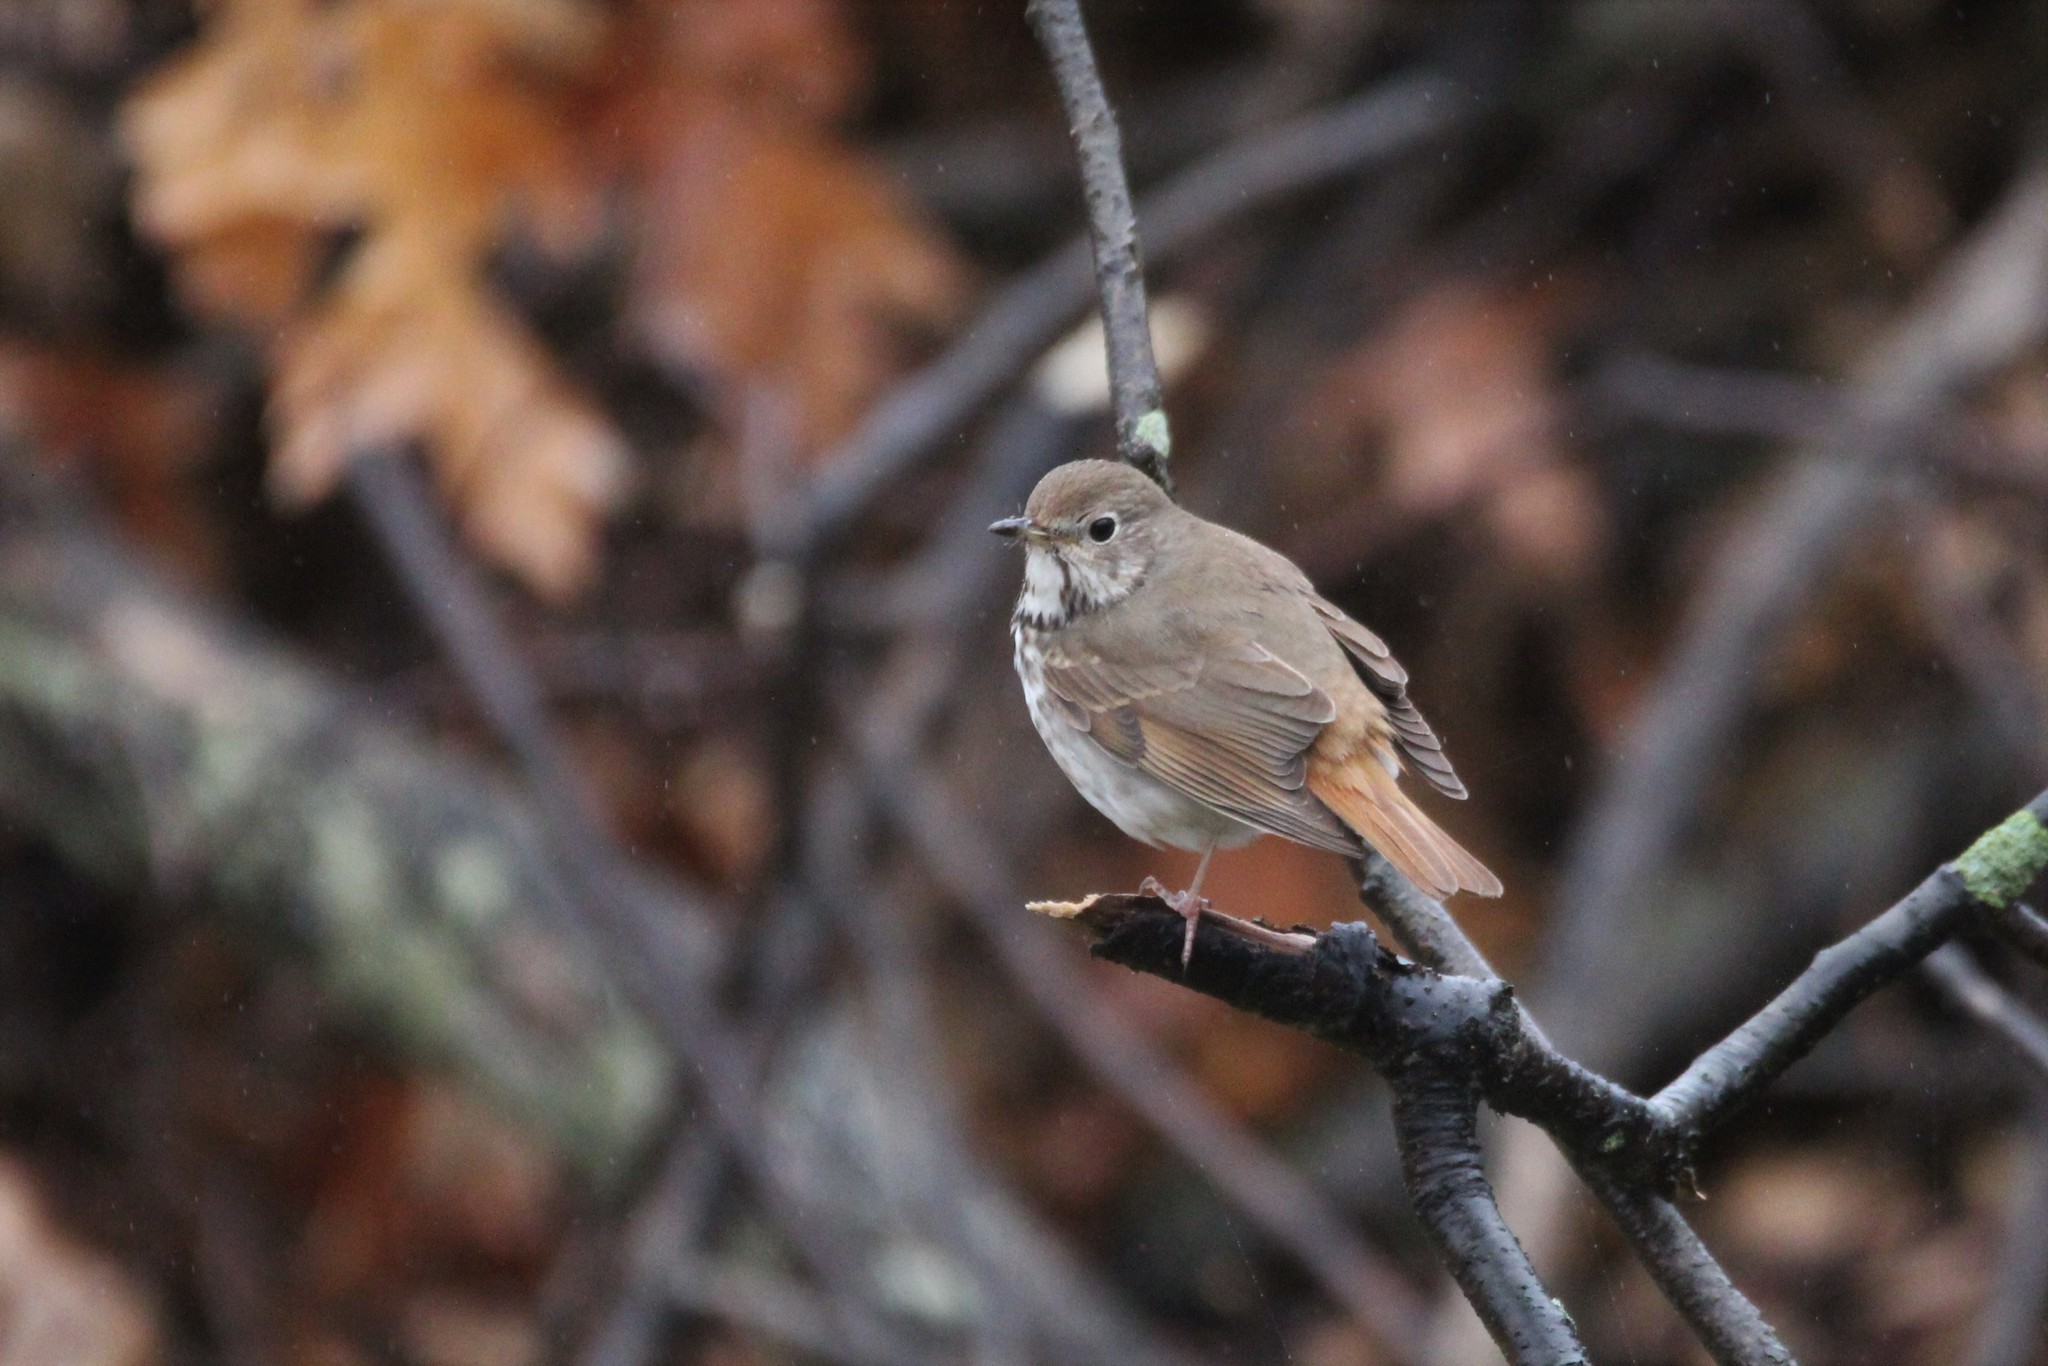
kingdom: Animalia
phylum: Chordata
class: Aves
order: Passeriformes
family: Turdidae
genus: Catharus
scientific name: Catharus guttatus
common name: Hermit thrush
